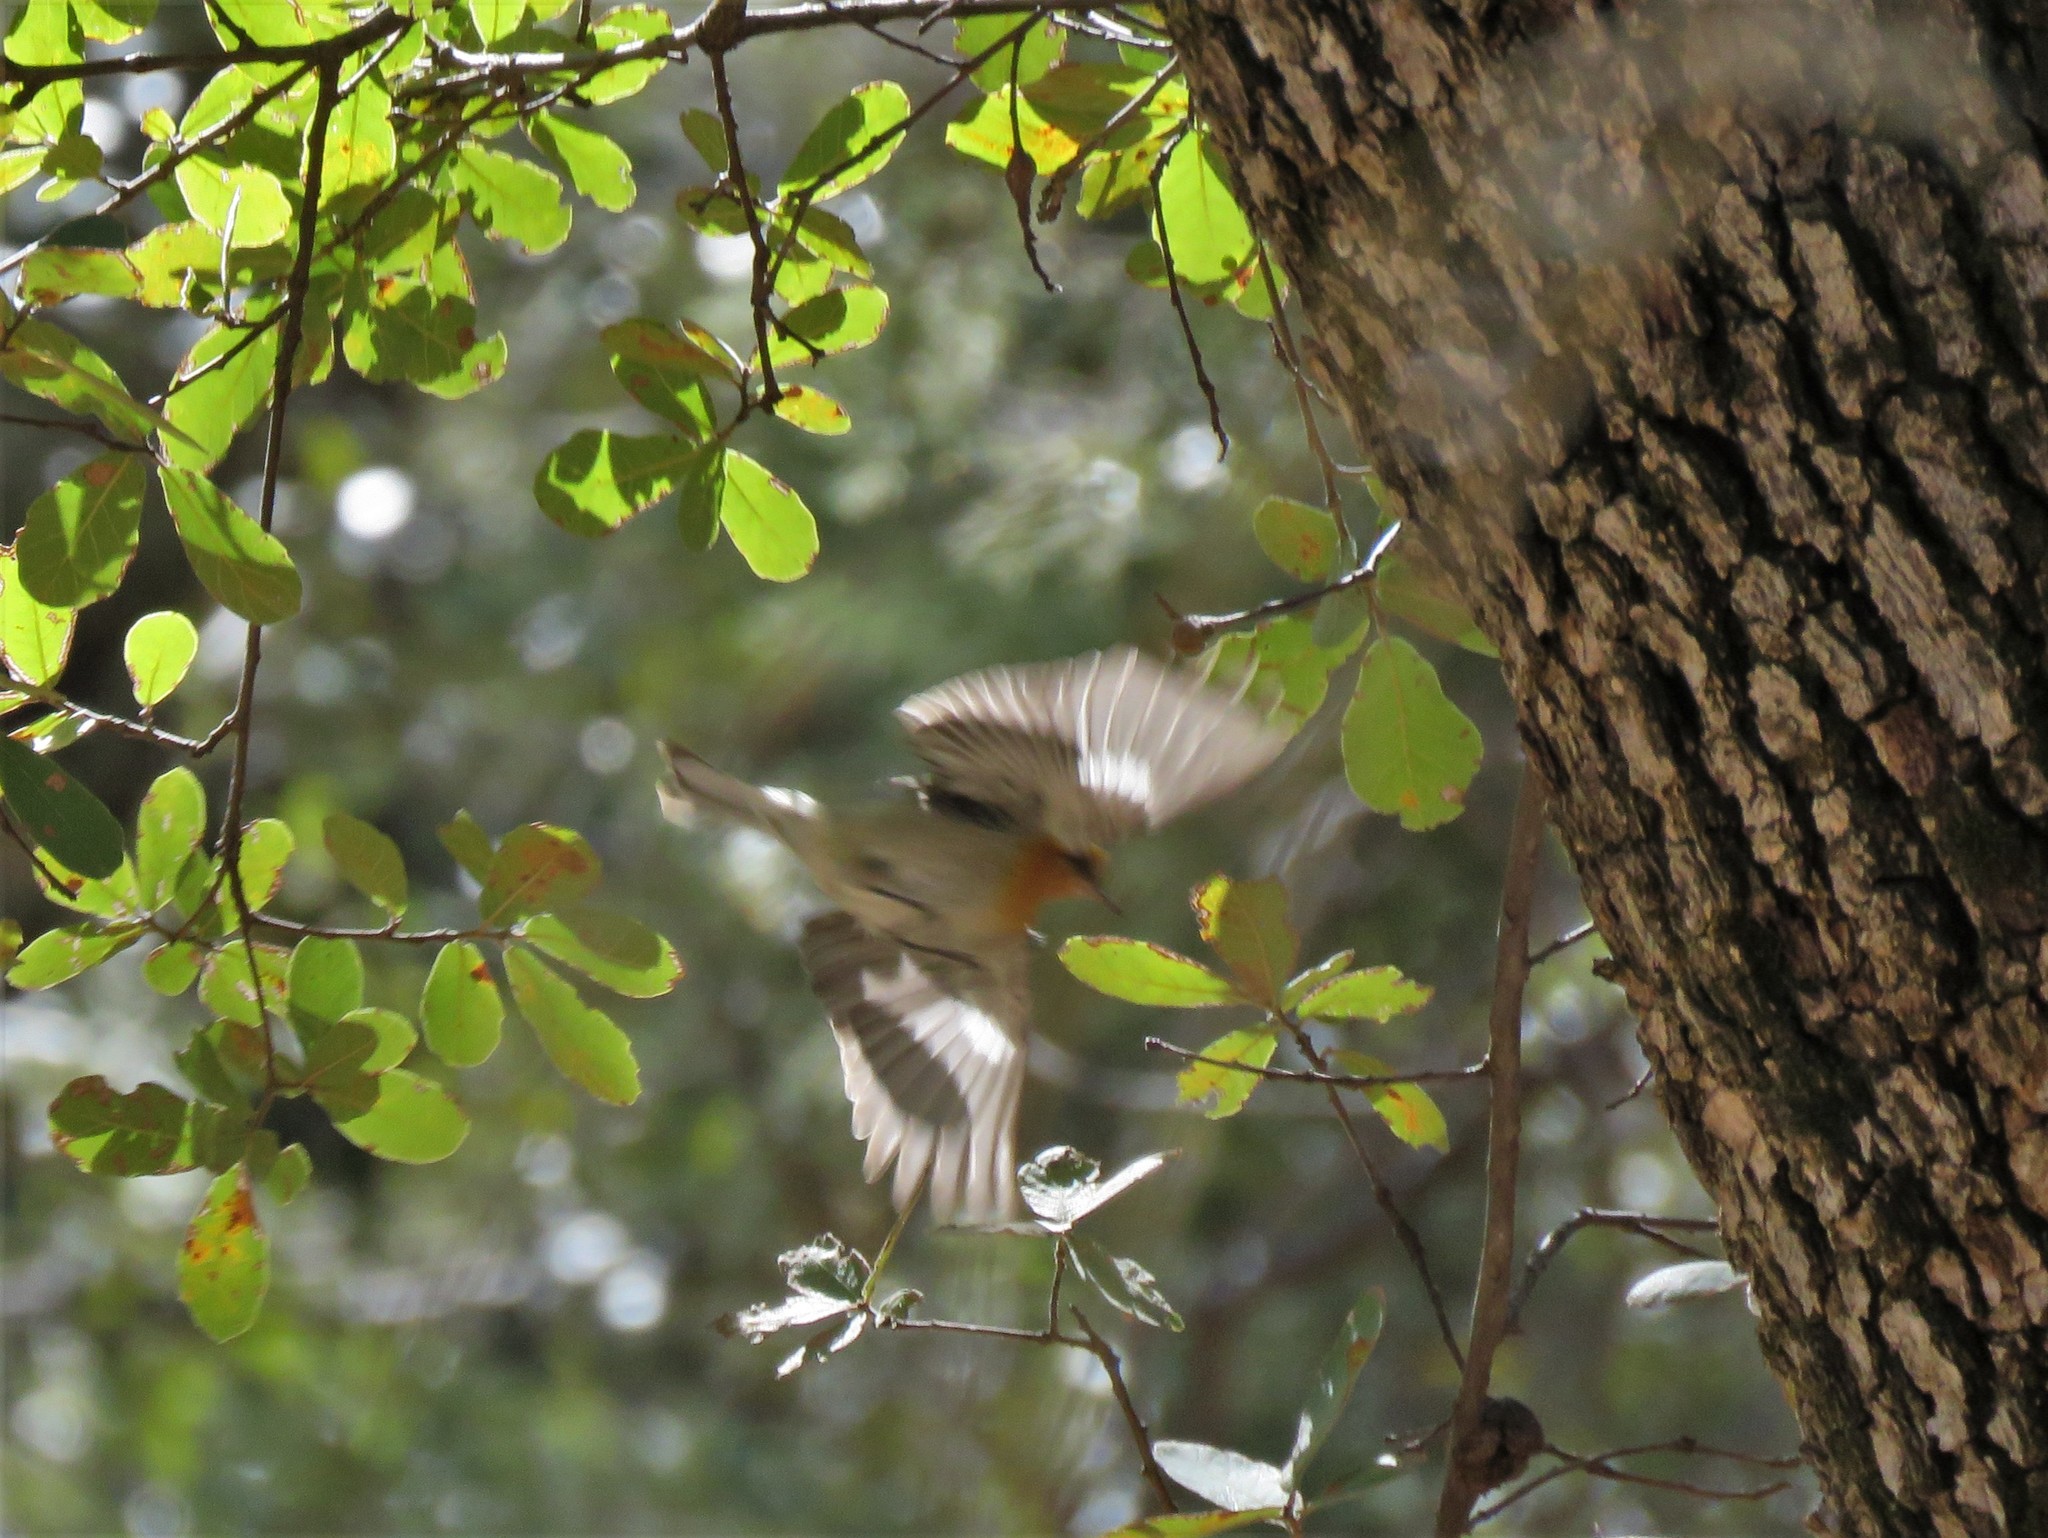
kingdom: Animalia
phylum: Chordata
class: Aves
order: Passeriformes
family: Peucedramidae
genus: Peucedramus
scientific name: Peucedramus taeniatus
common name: Olive warbler
